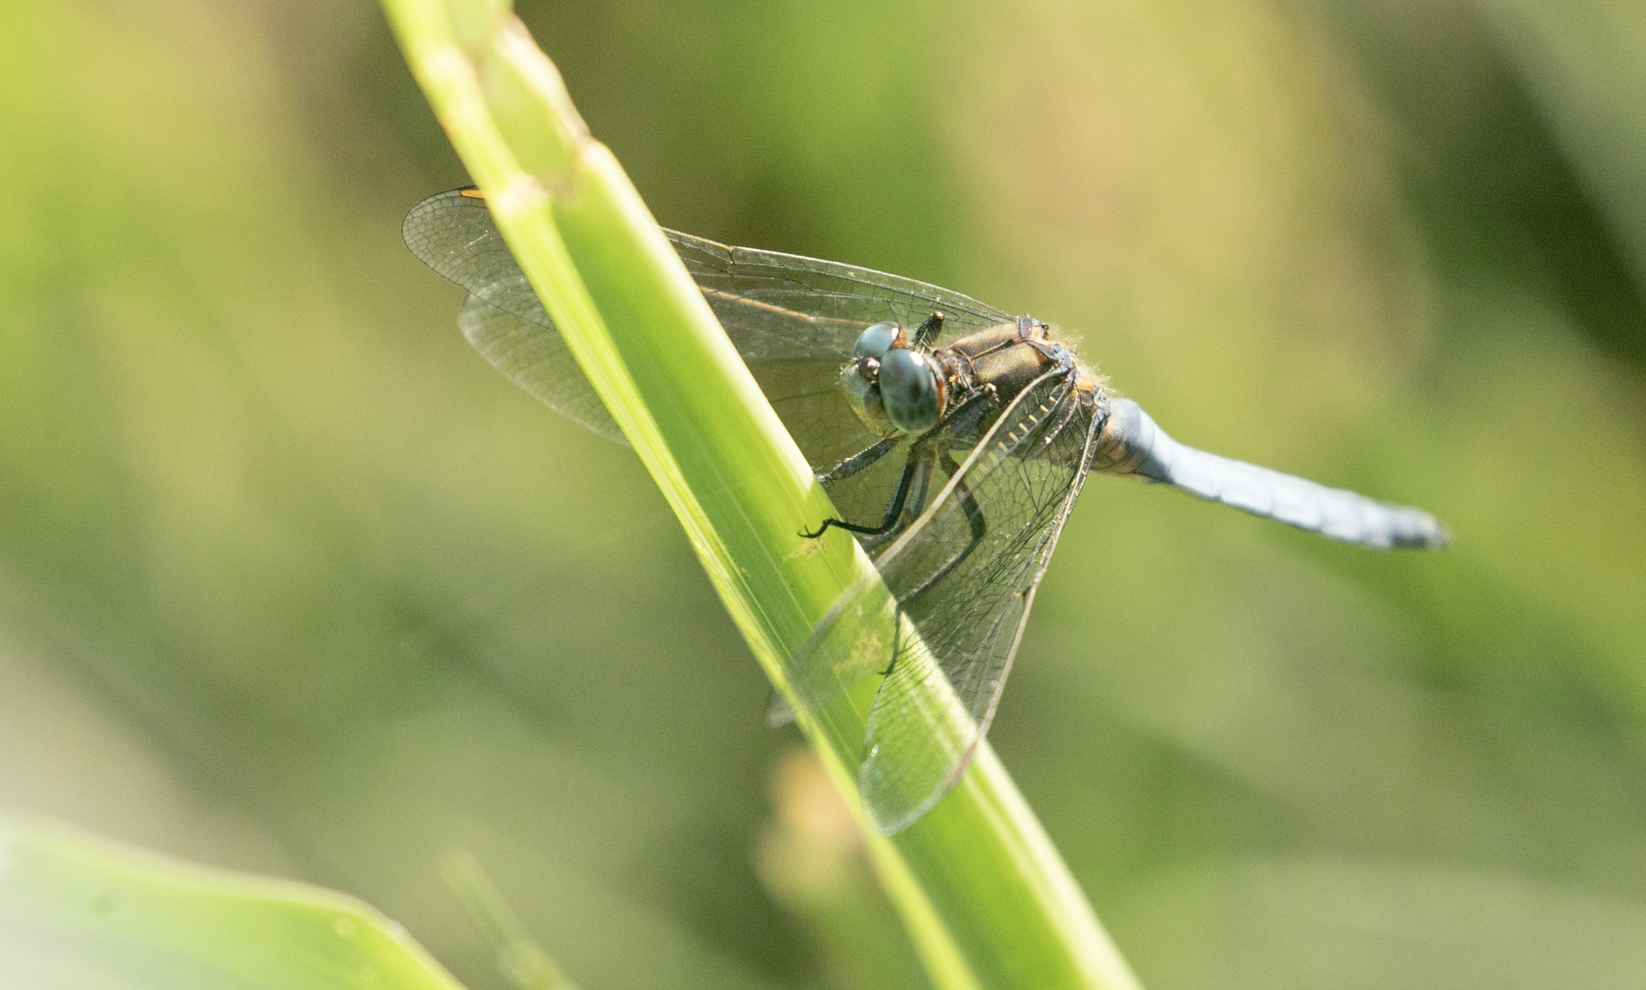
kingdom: Animalia
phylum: Arthropoda
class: Insecta
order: Odonata
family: Libellulidae
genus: Orthetrum
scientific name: Orthetrum coerulescens
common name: Keeled skimmer
